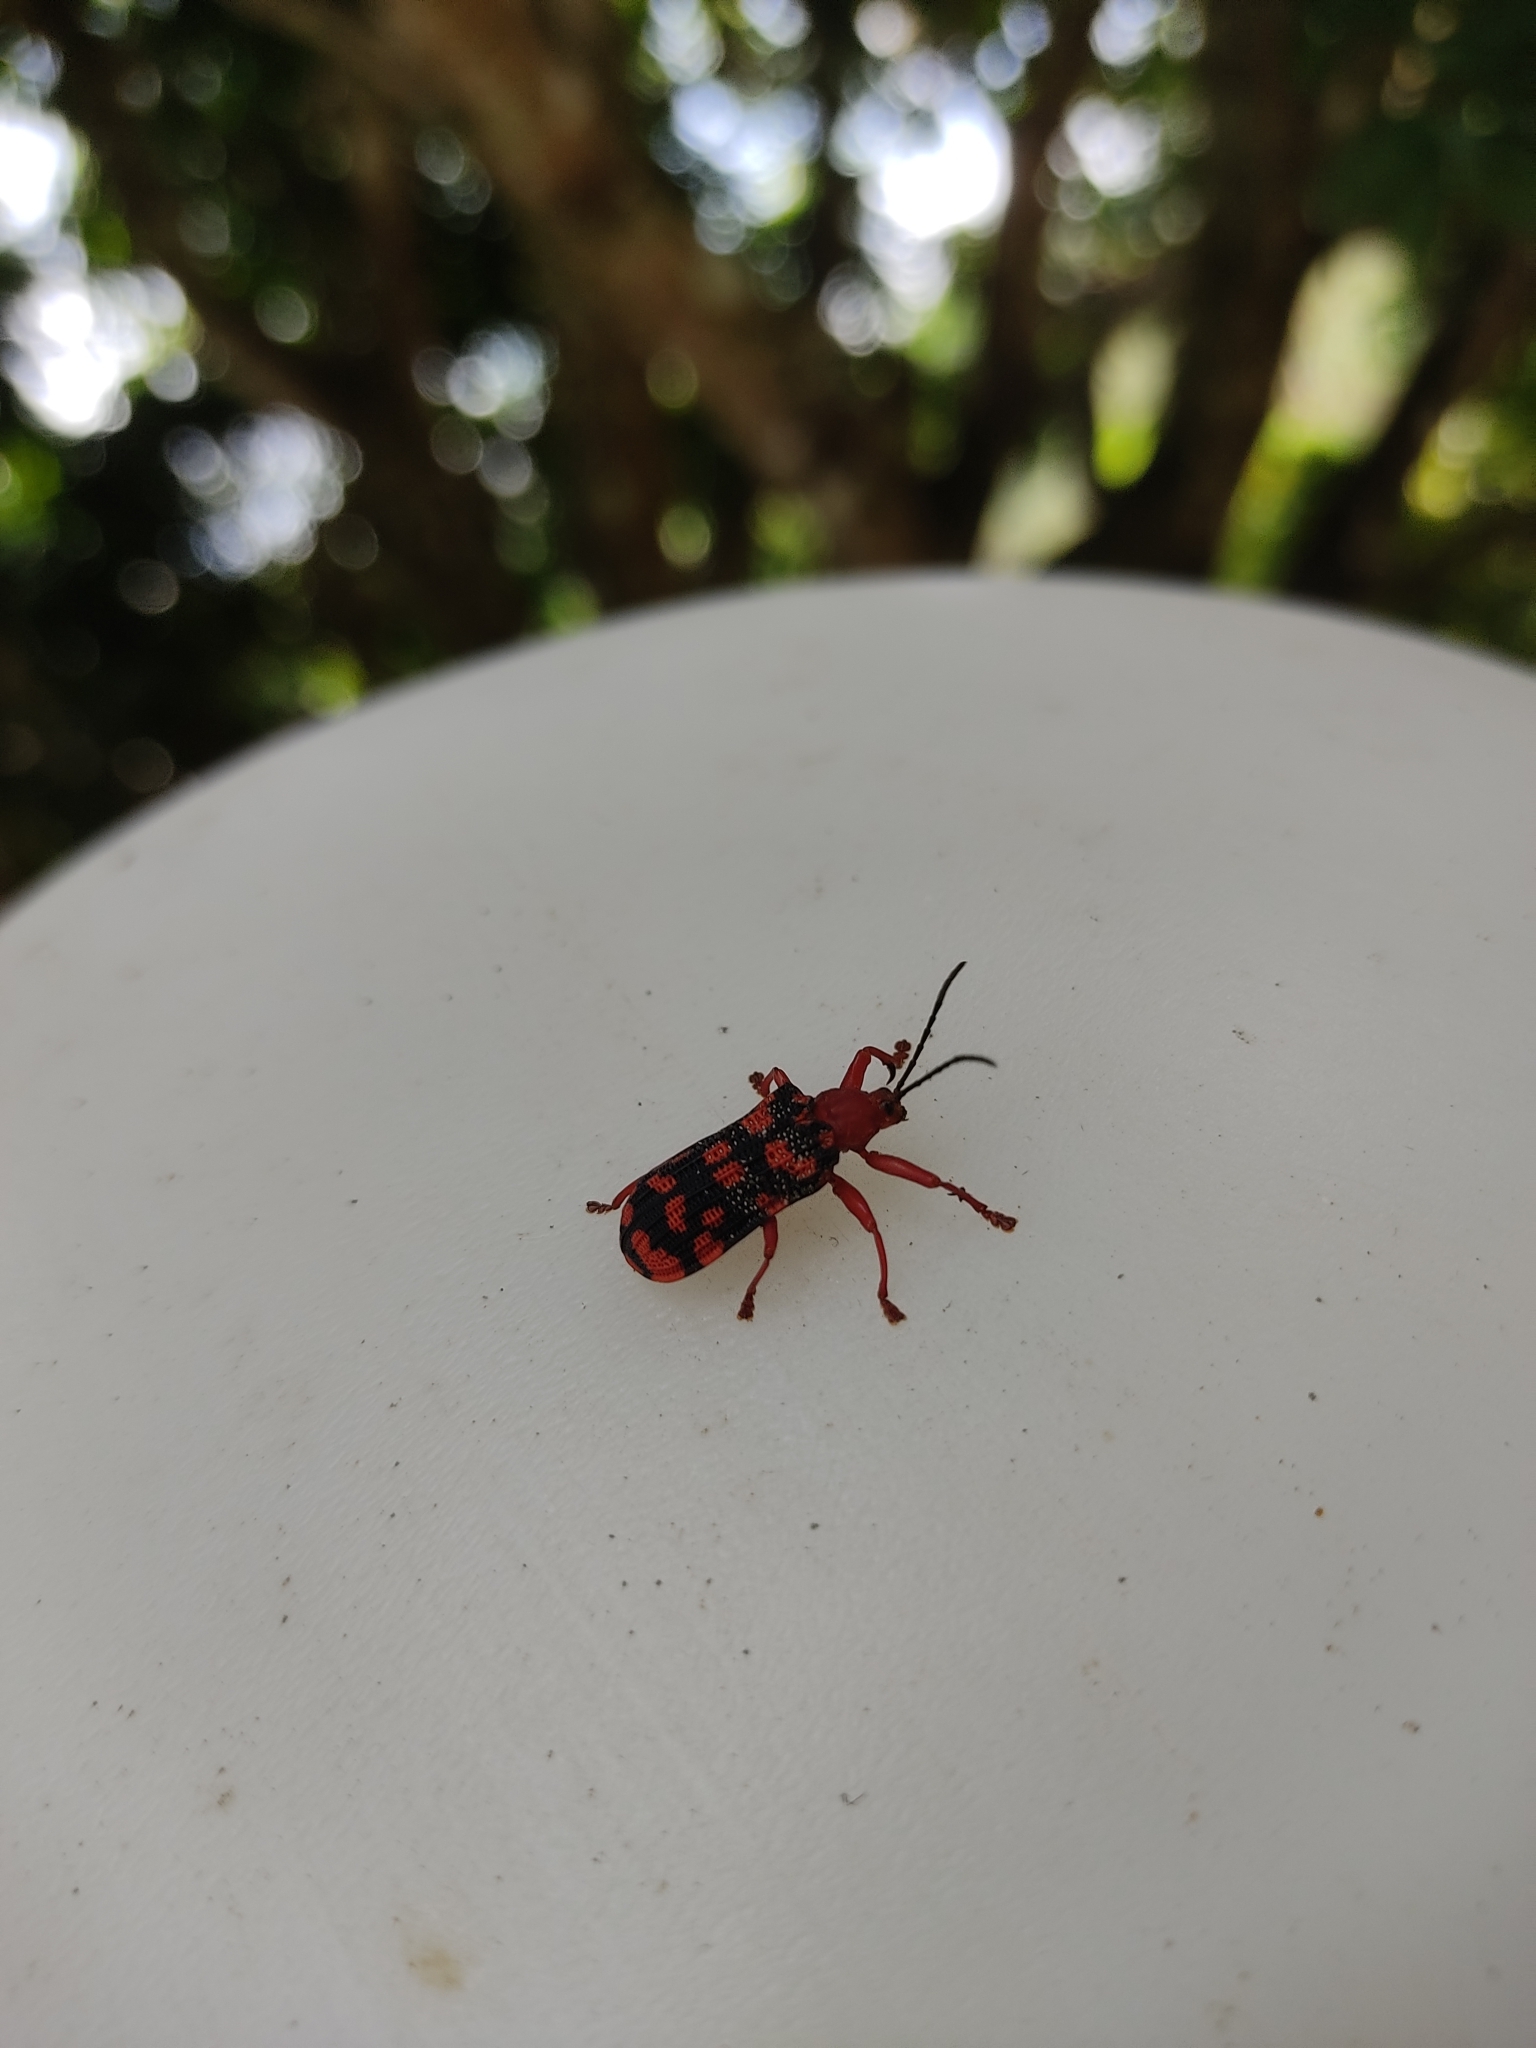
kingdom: Animalia
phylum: Arthropoda
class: Insecta
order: Coleoptera
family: Chrysomelidae
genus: Sceloenopla
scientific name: Sceloenopla maculata
